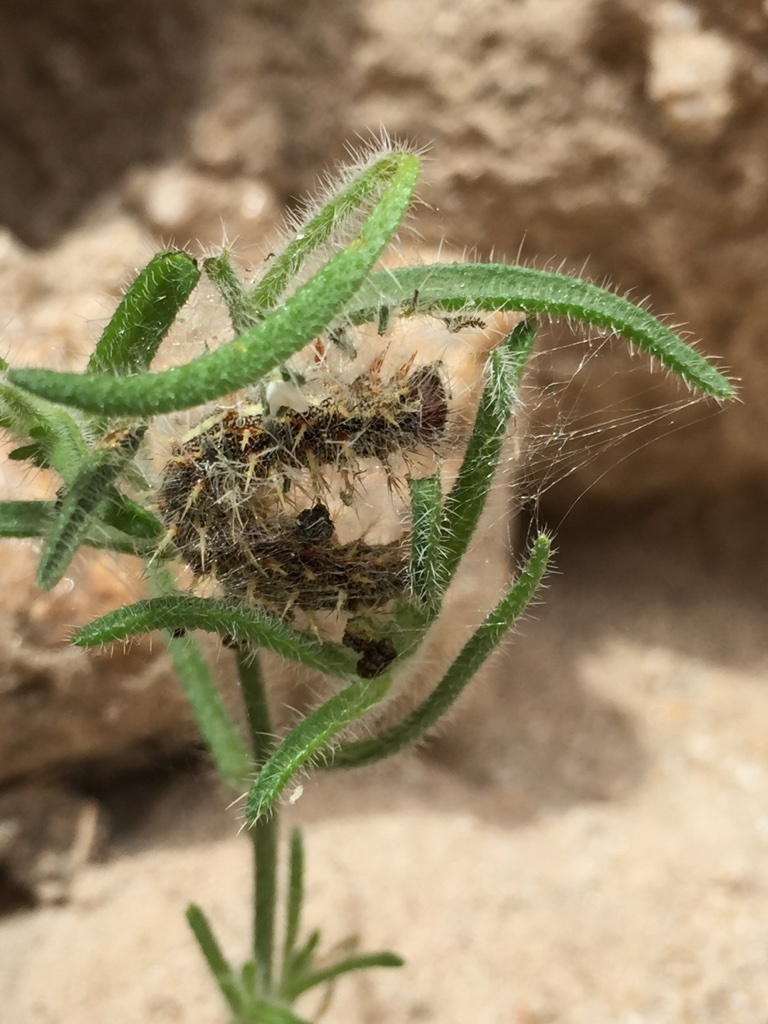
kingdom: Animalia
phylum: Arthropoda
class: Insecta
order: Lepidoptera
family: Nymphalidae
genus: Vanessa
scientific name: Vanessa cardui
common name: Painted lady
